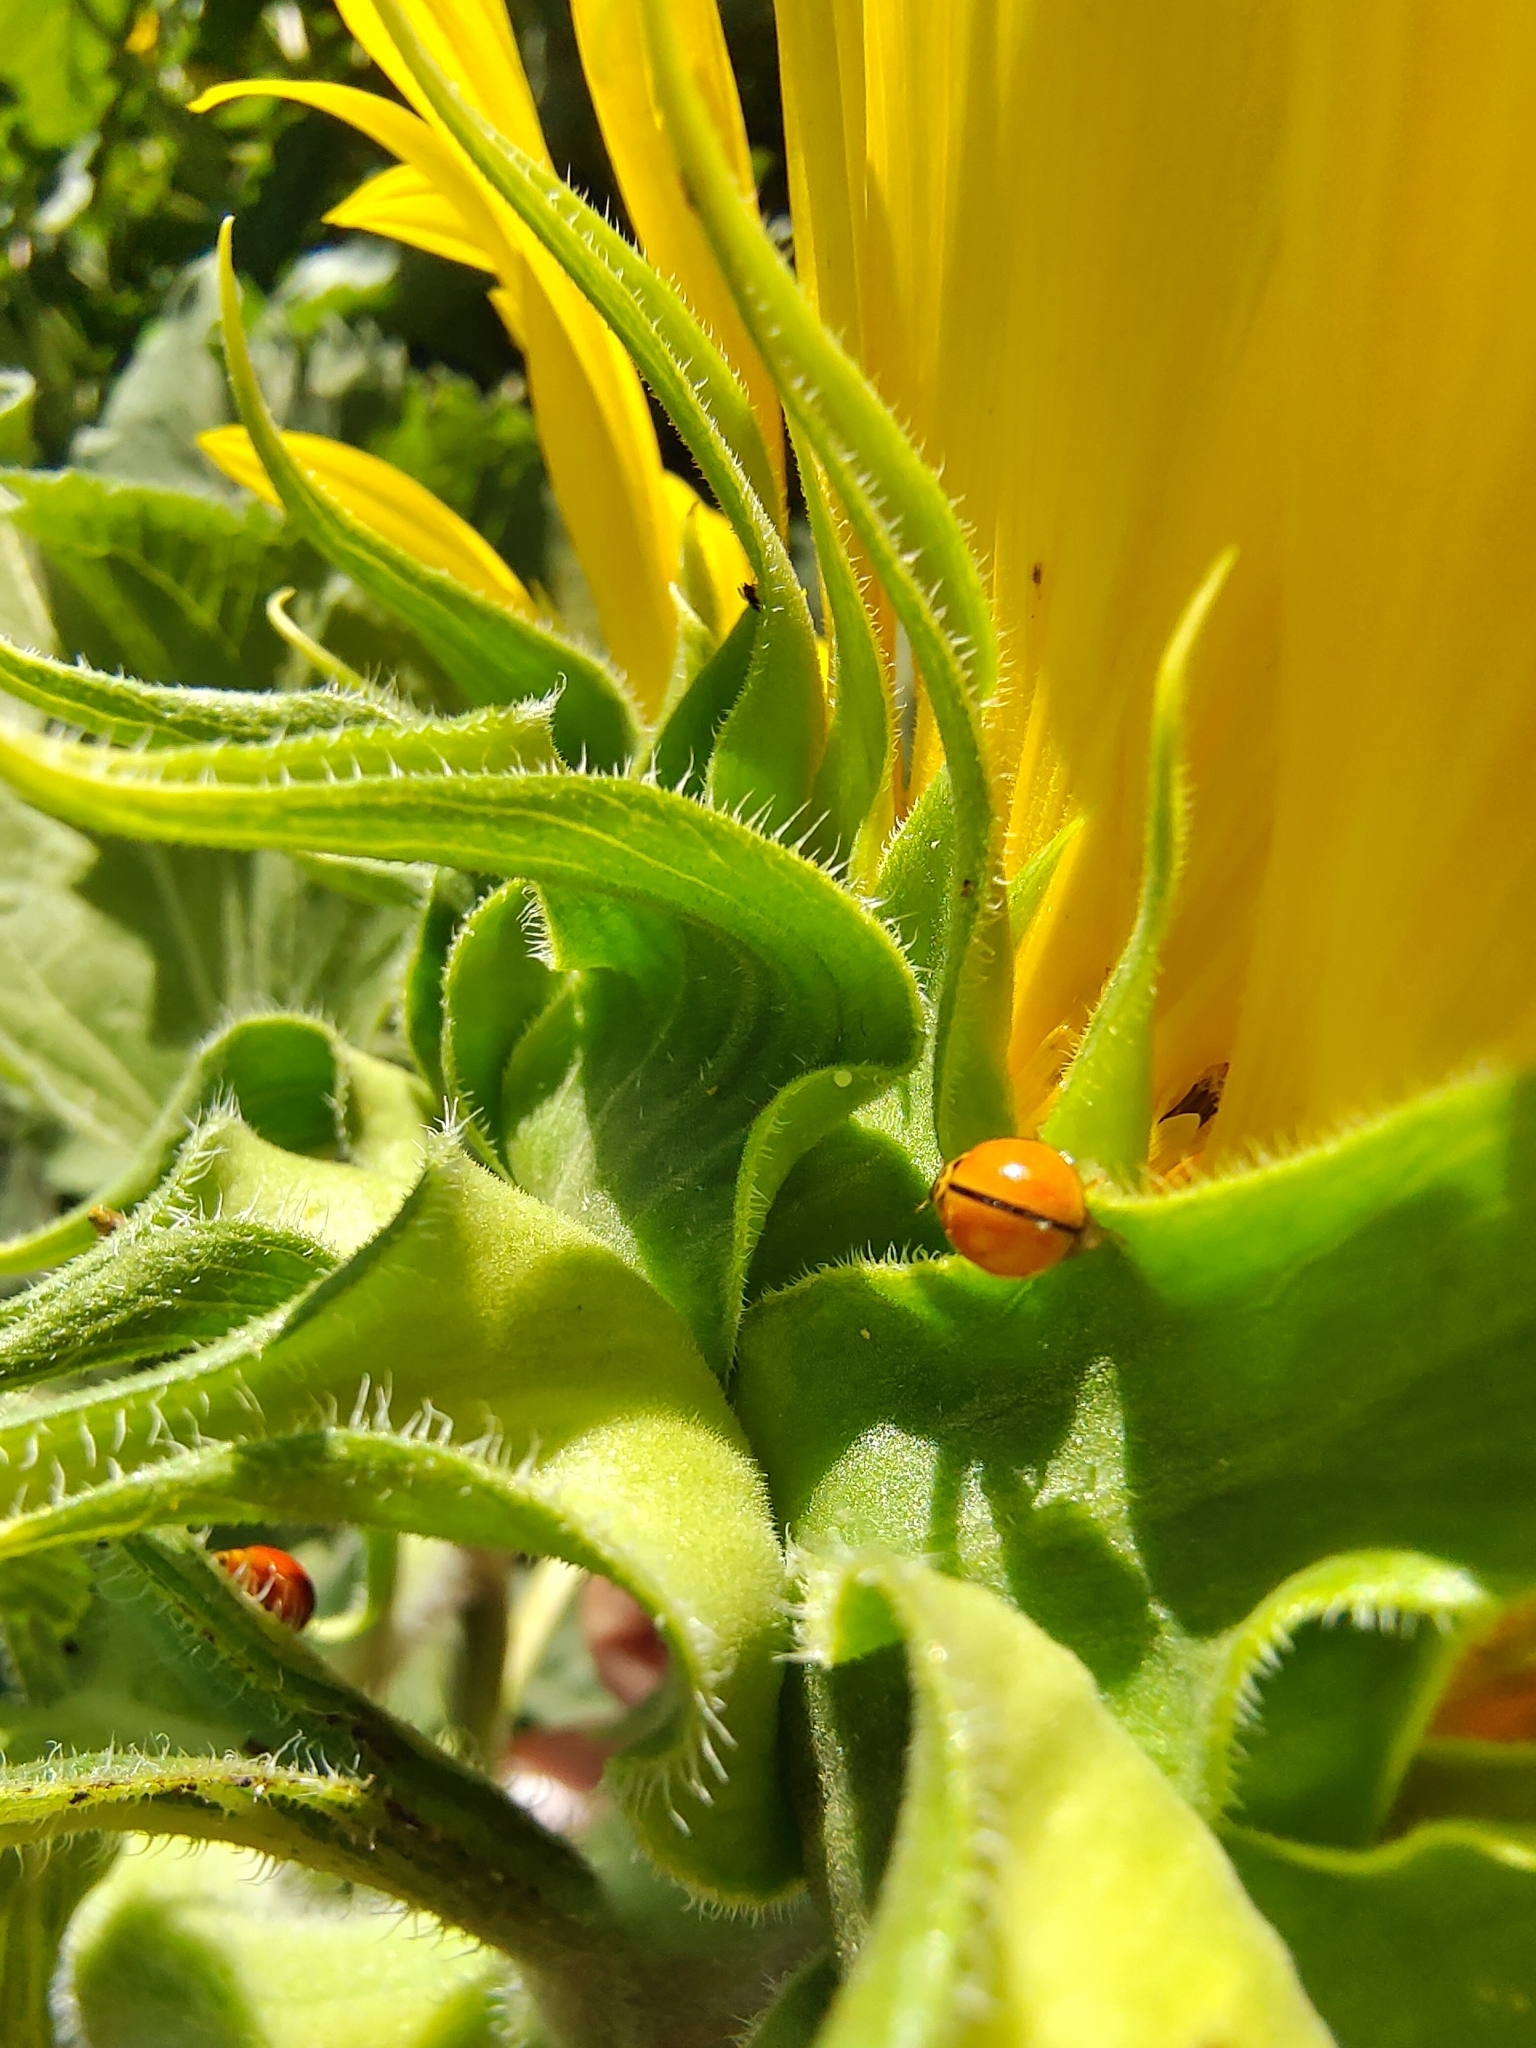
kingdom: Animalia
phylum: Arthropoda
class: Insecta
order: Coleoptera
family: Coccinellidae
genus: Micraspis
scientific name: Micraspis discolor
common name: Lady beetle
